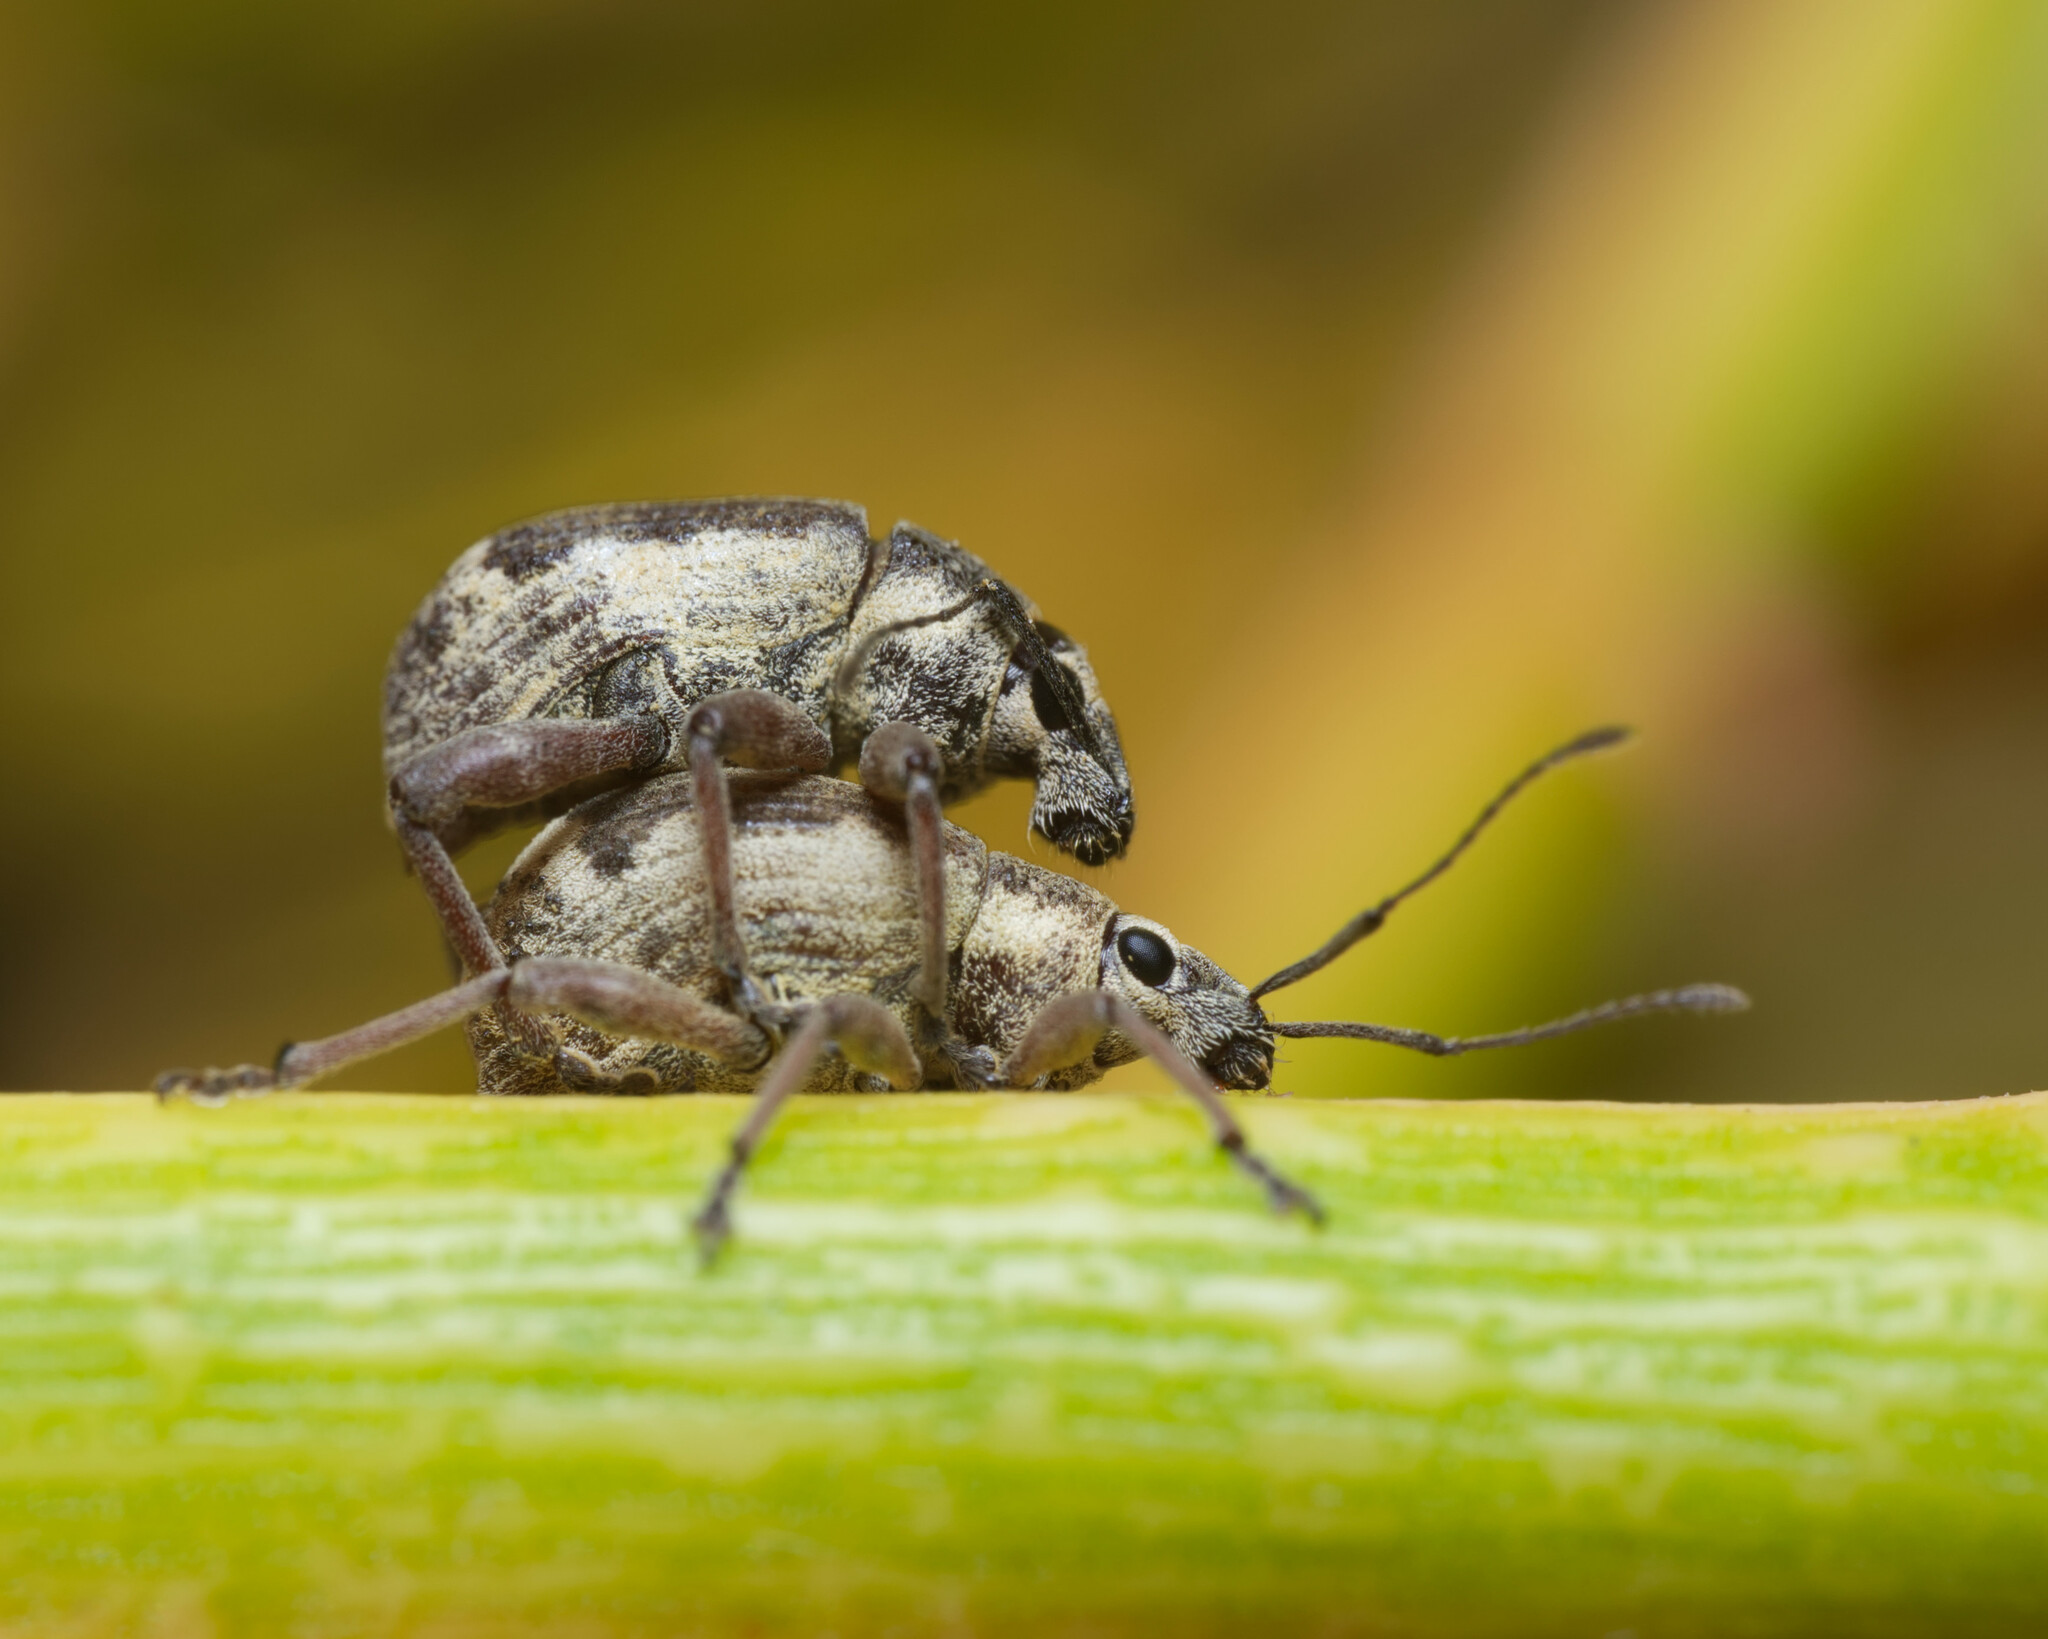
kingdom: Animalia
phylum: Arthropoda
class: Insecta
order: Coleoptera
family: Curculionidae
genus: Sciobius
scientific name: Sciobius pullus
